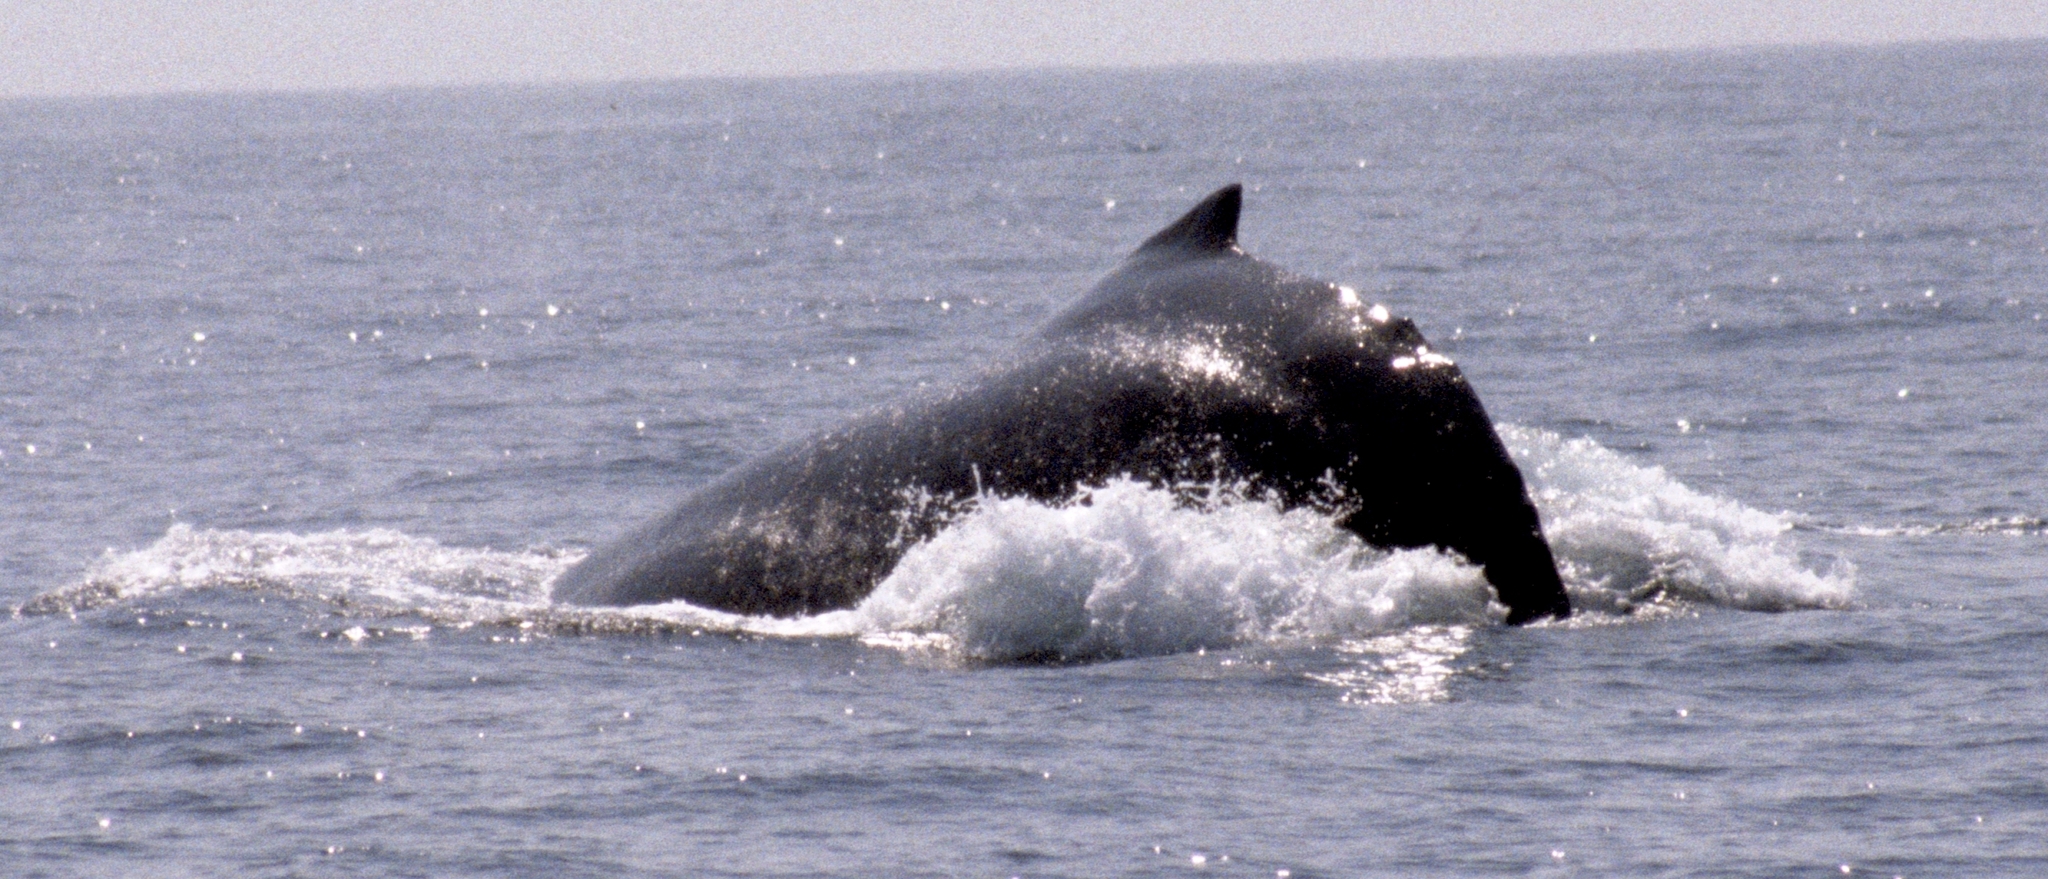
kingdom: Animalia
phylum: Chordata
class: Mammalia
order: Cetacea
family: Balaenopteridae
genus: Megaptera
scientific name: Megaptera novaeangliae
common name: Humpback whale
